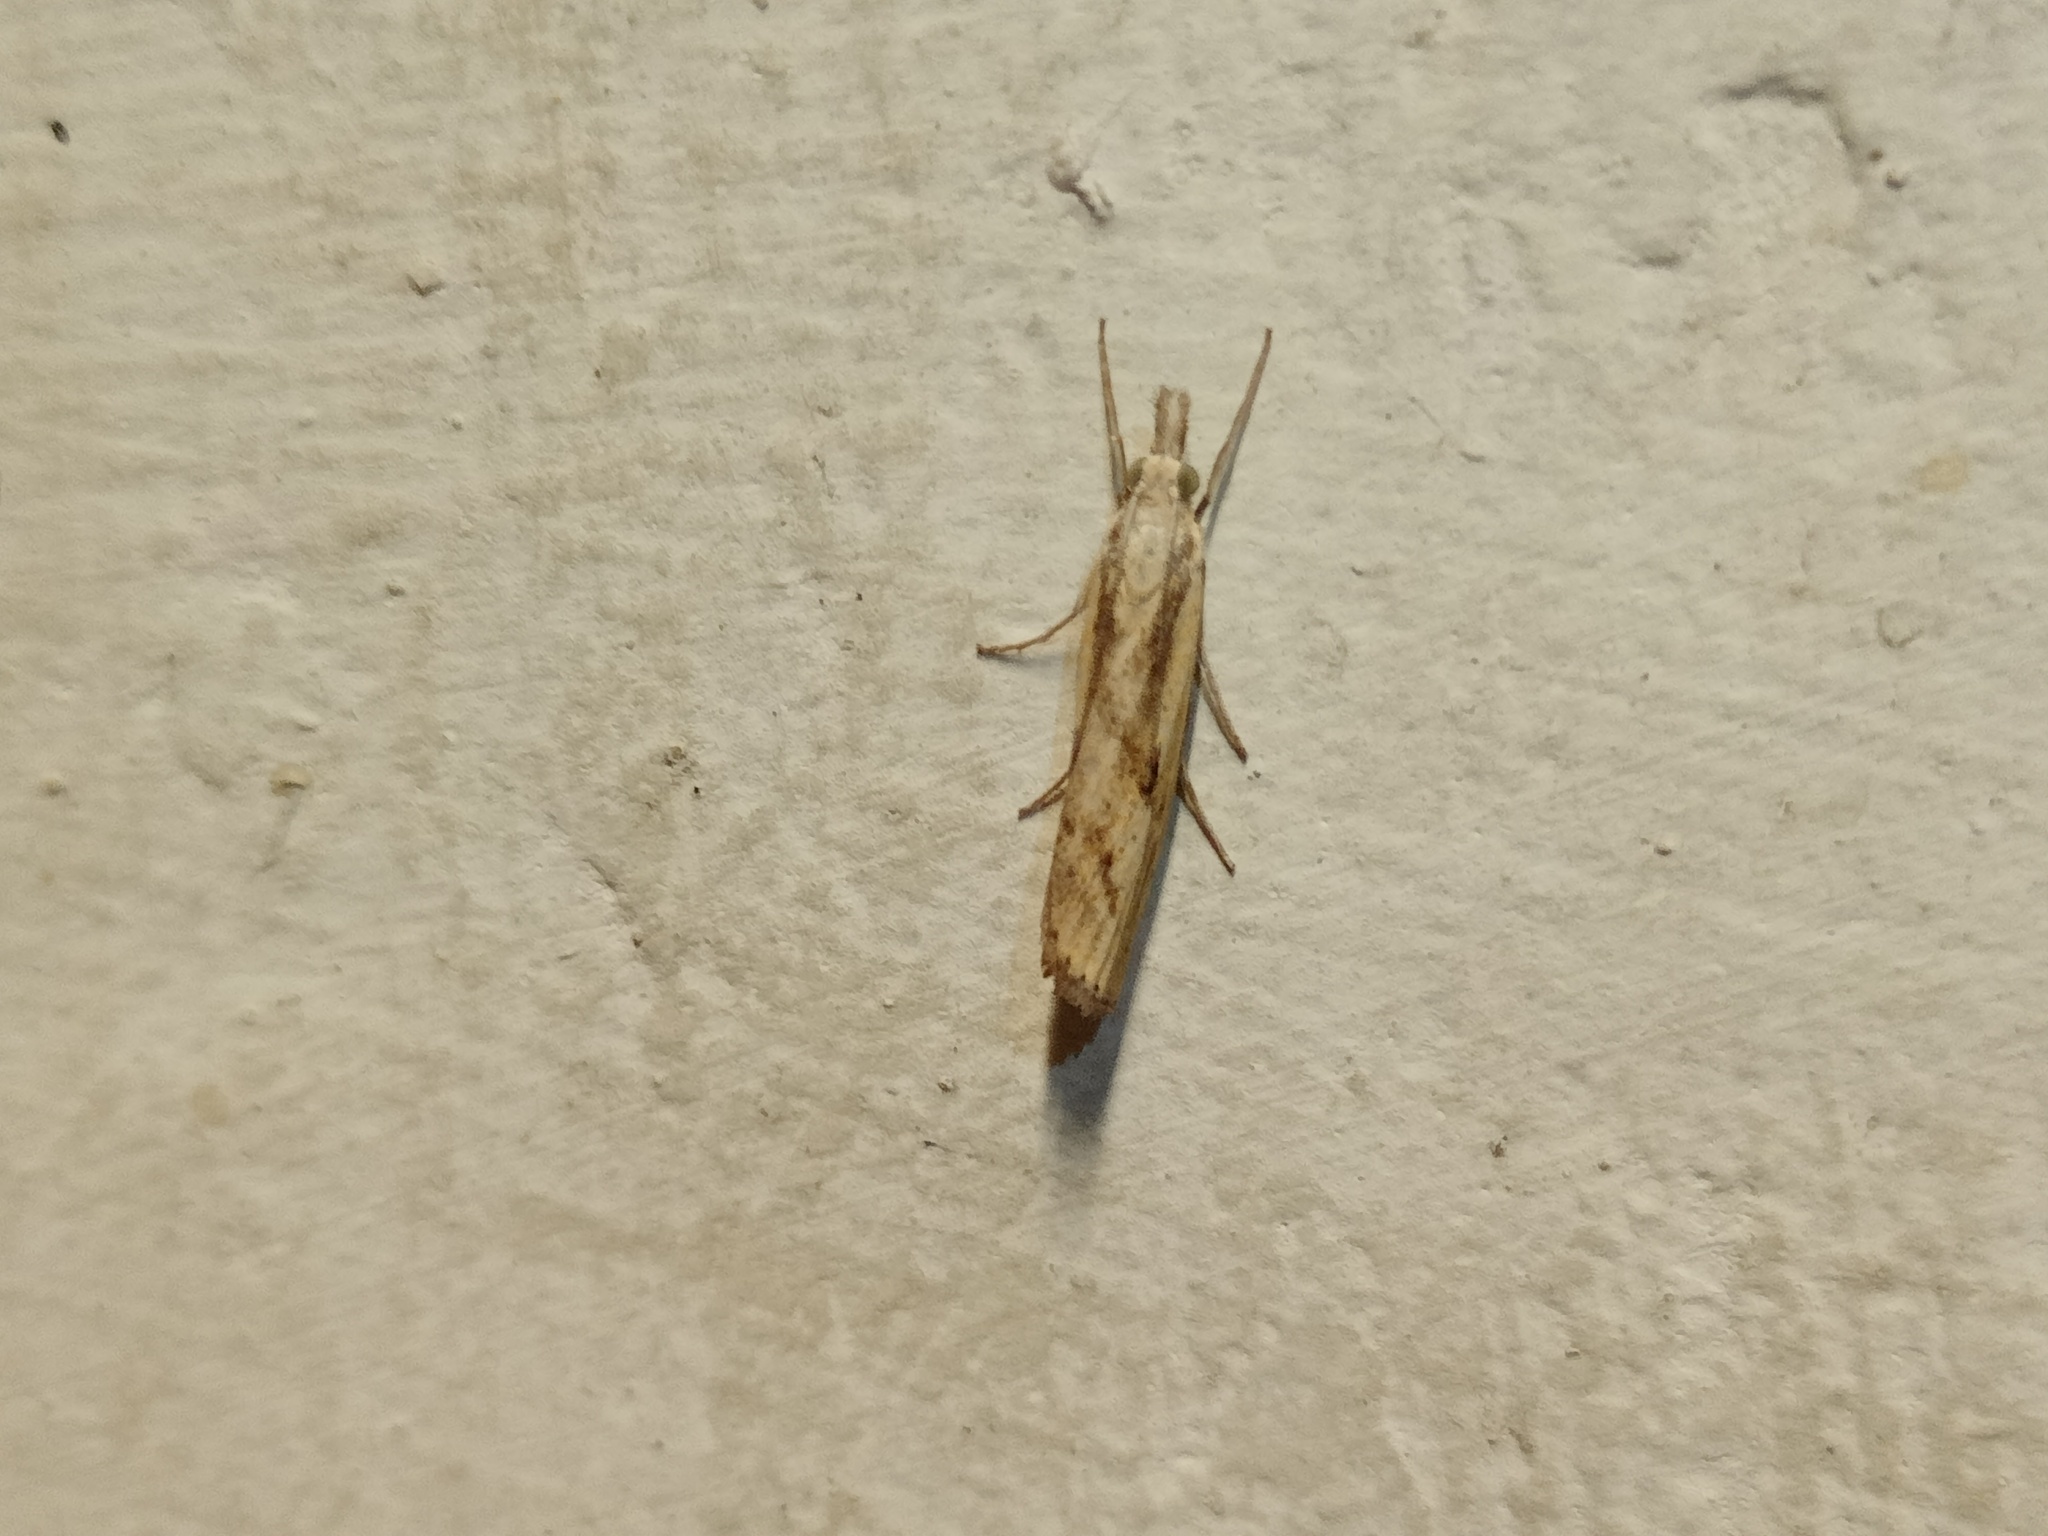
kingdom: Animalia
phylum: Arthropoda
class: Insecta
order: Lepidoptera
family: Crambidae
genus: Agriphila
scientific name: Agriphila inquinatella
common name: Barred grass-veneer
